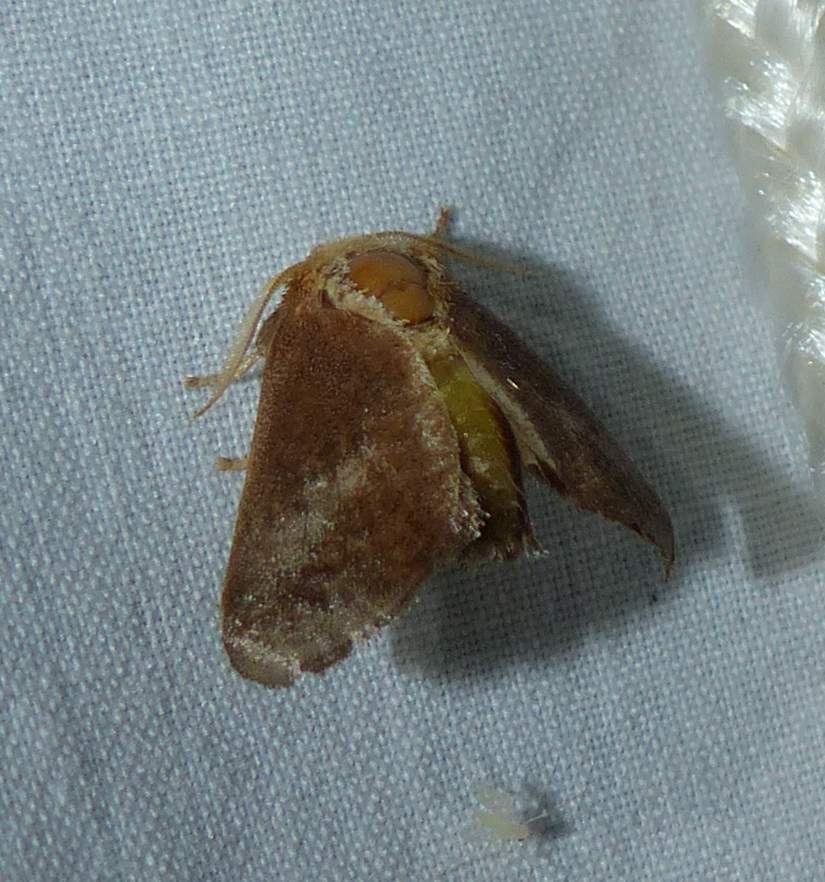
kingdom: Animalia
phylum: Arthropoda
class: Insecta
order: Lepidoptera
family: Limacodidae
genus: Isa
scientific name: Isa textula
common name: Crowned slug moth
